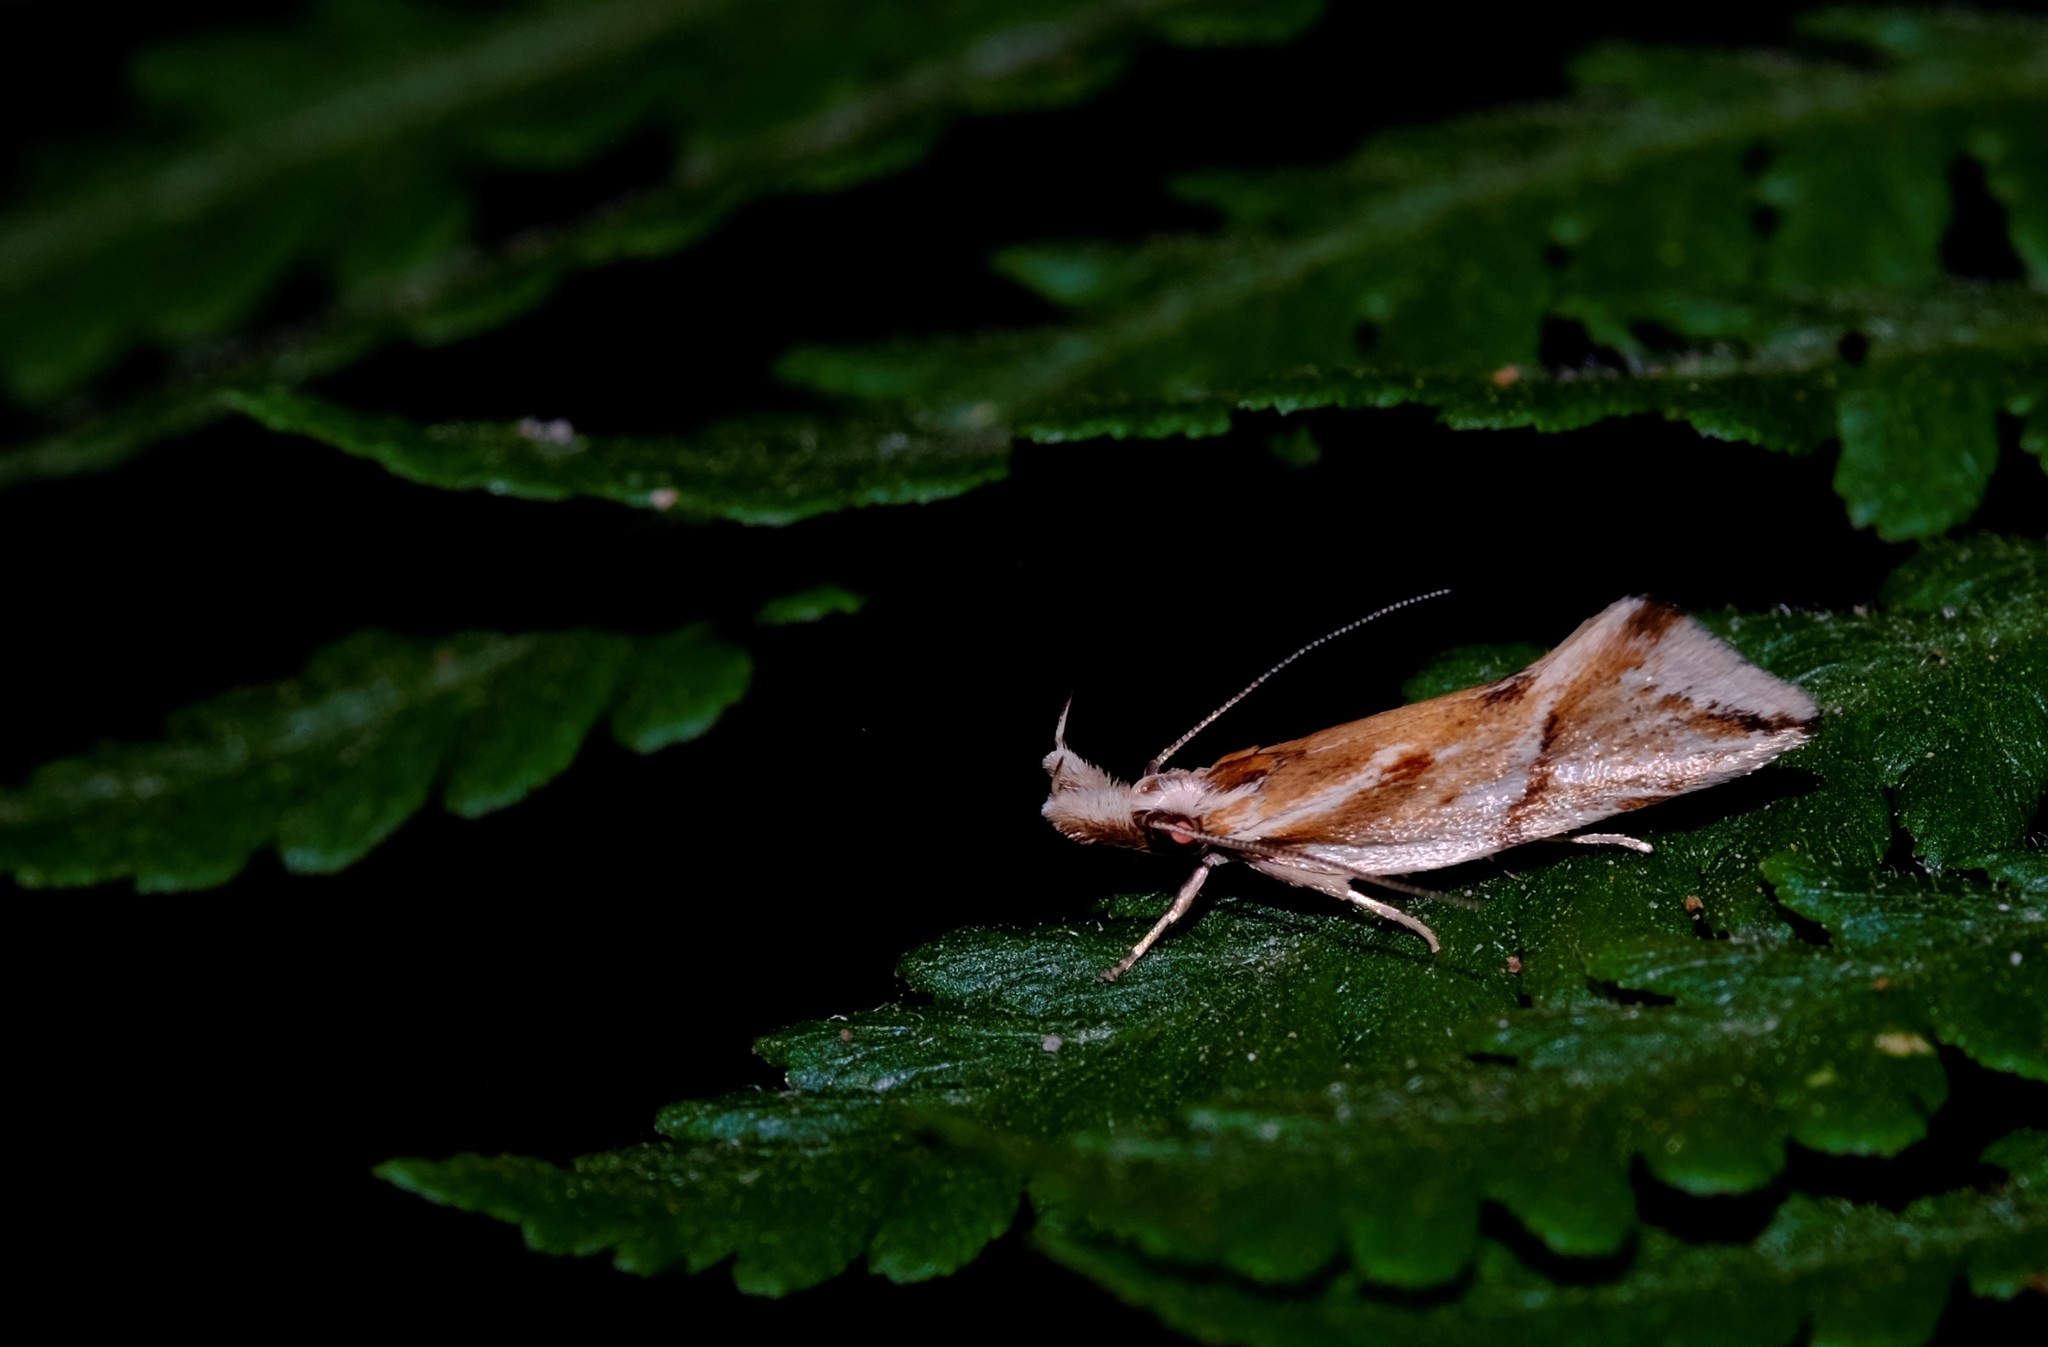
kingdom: Animalia
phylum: Arthropoda
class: Insecta
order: Lepidoptera
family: Oecophoridae
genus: Thema
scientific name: Thema chlorochyta
